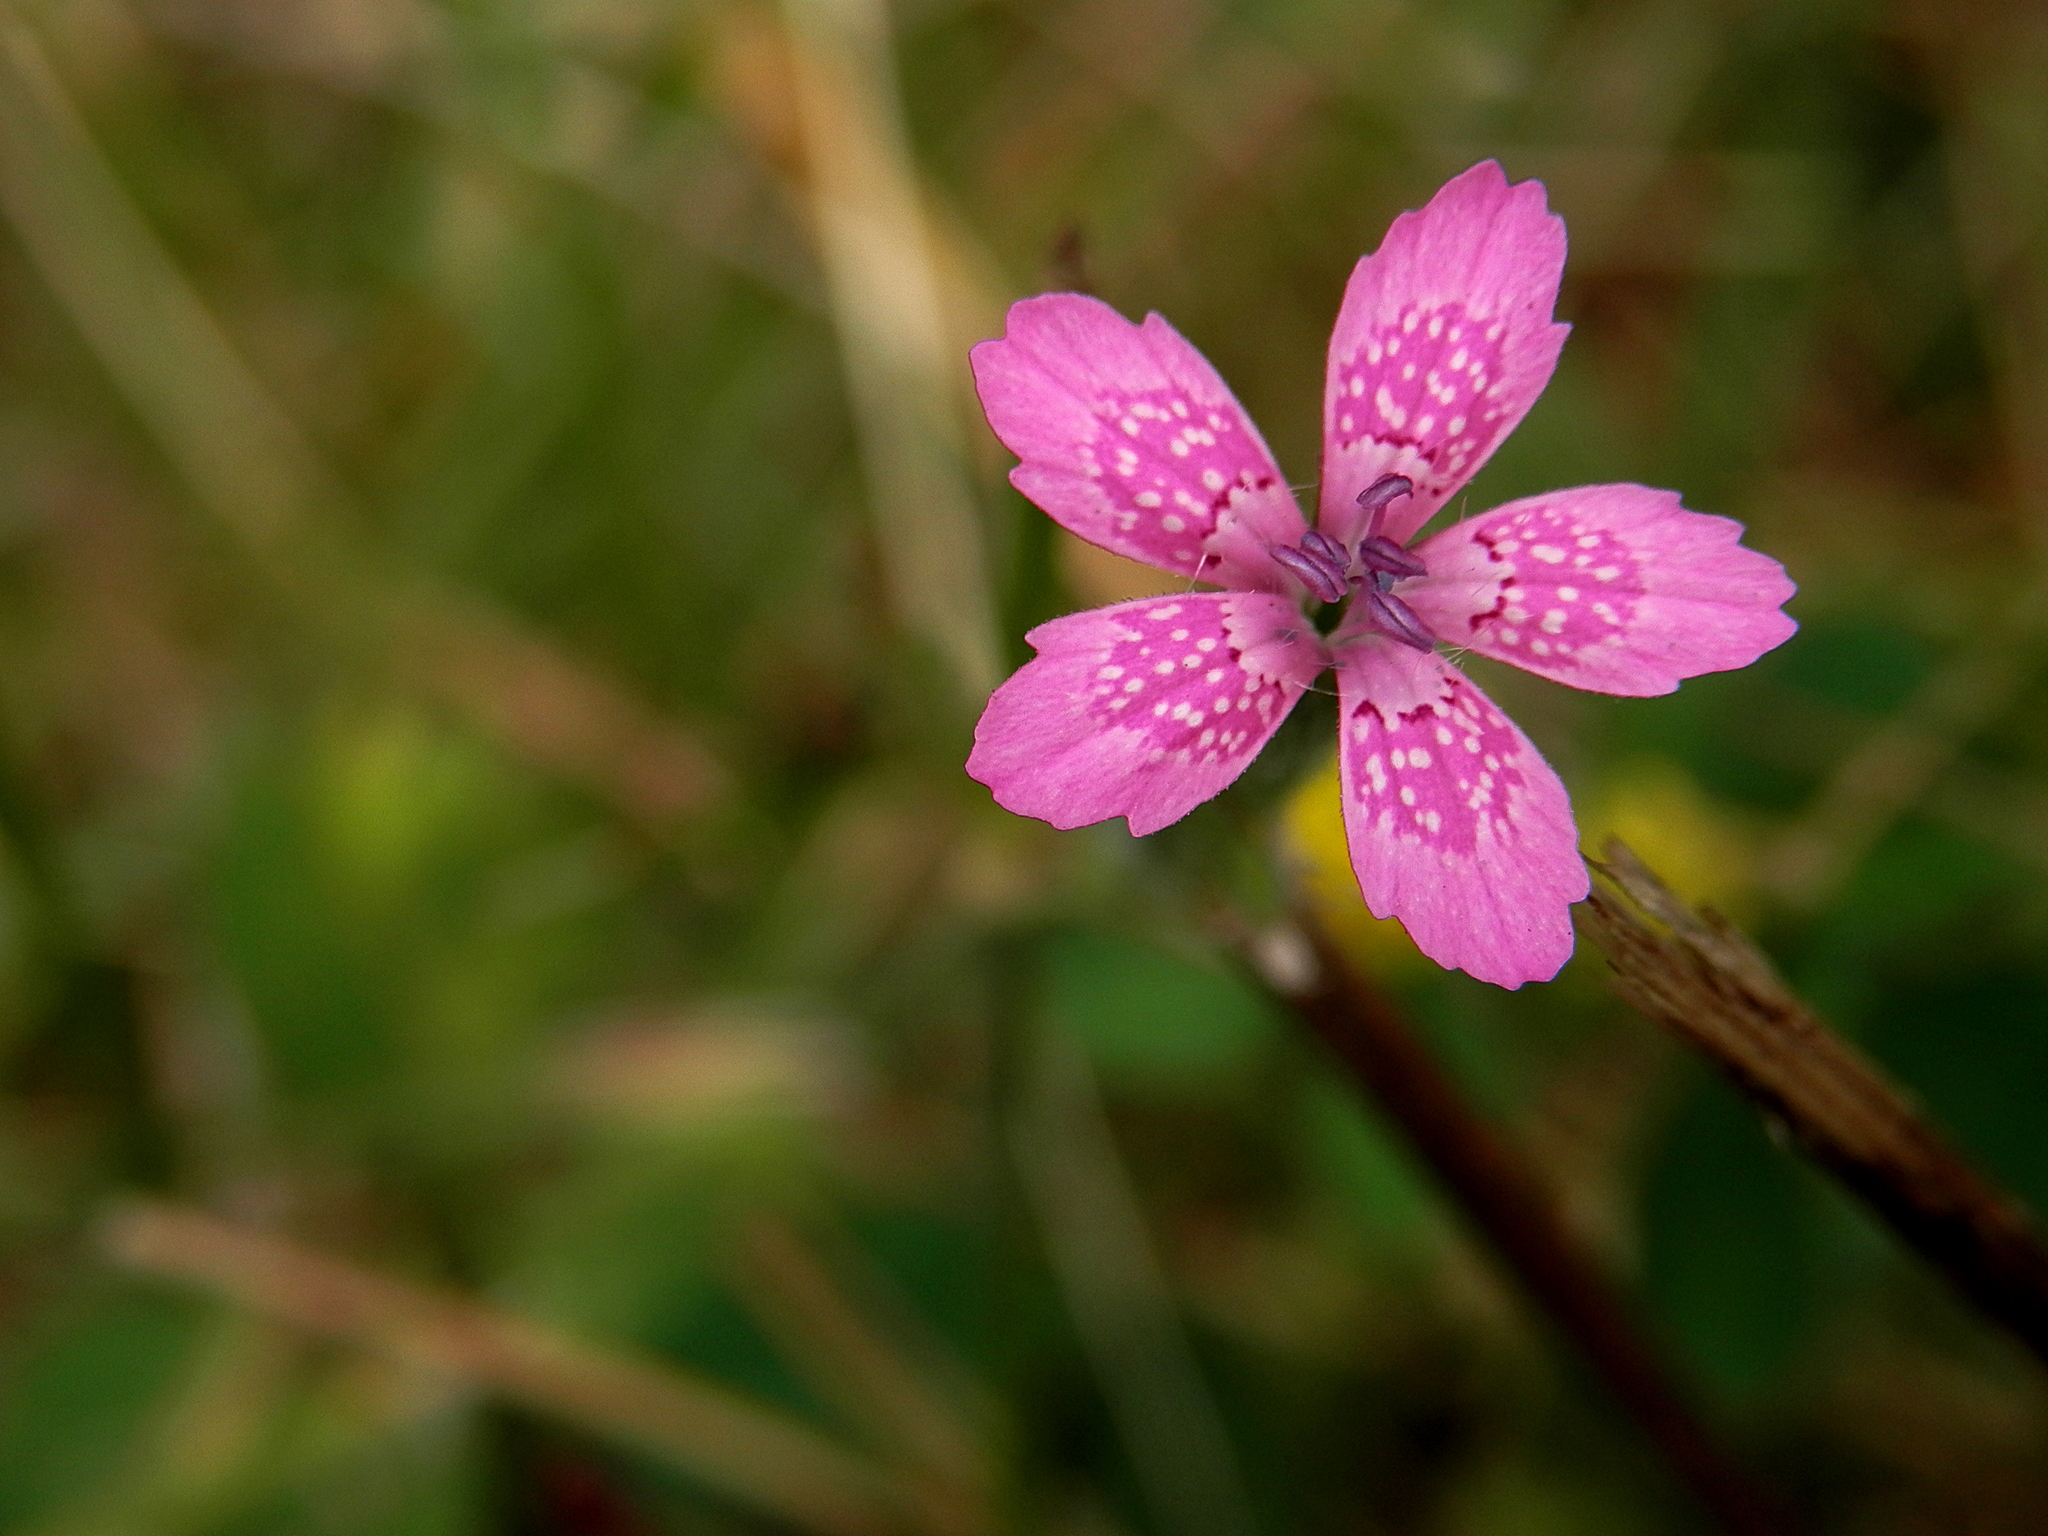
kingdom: Plantae
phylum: Tracheophyta
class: Magnoliopsida
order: Caryophyllales
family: Caryophyllaceae
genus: Dianthus
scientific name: Dianthus armeria
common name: Deptford pink
